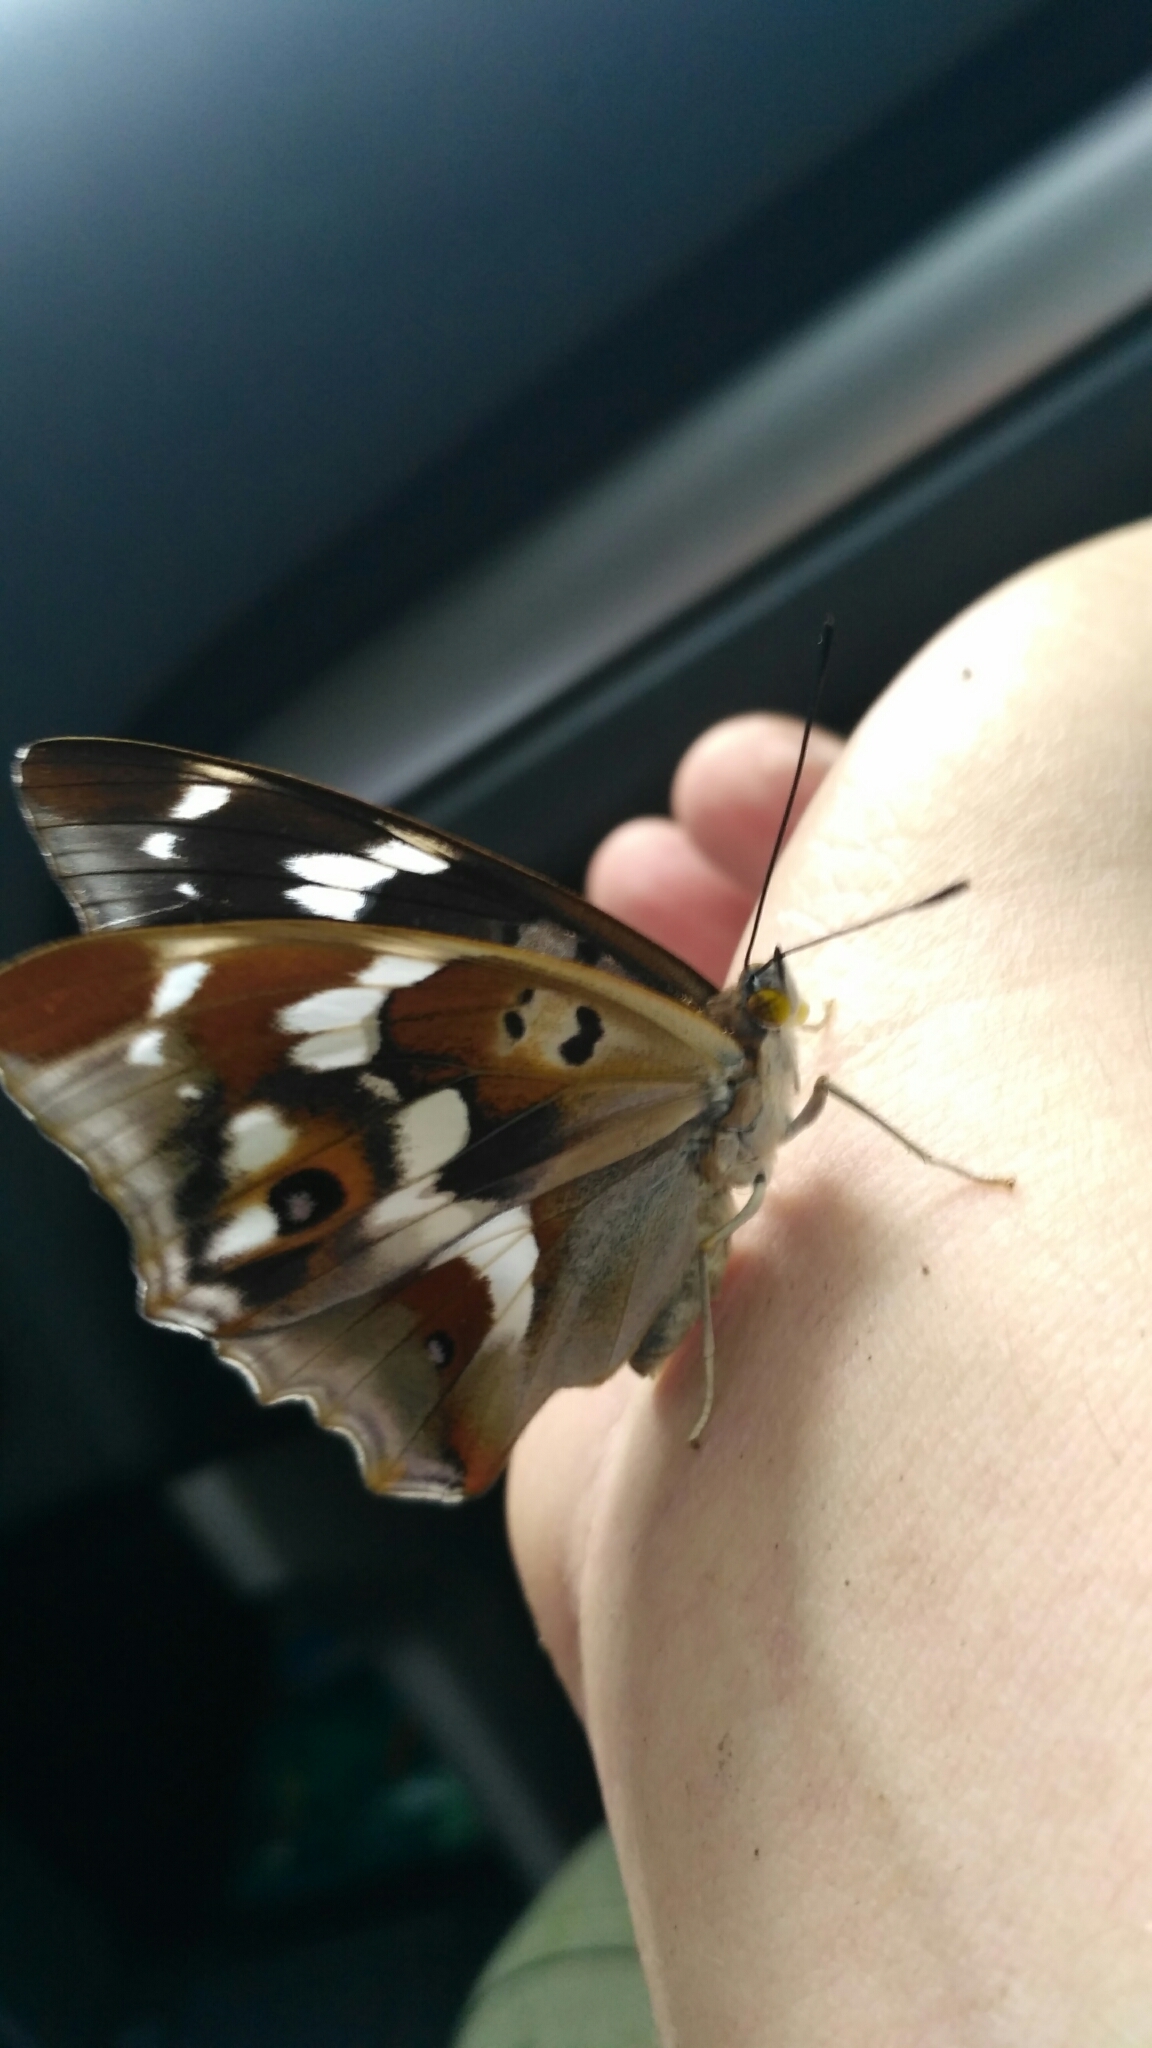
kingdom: Animalia
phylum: Arthropoda
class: Insecta
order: Lepidoptera
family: Nymphalidae
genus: Apatura
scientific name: Apatura iris
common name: Purple emperor
